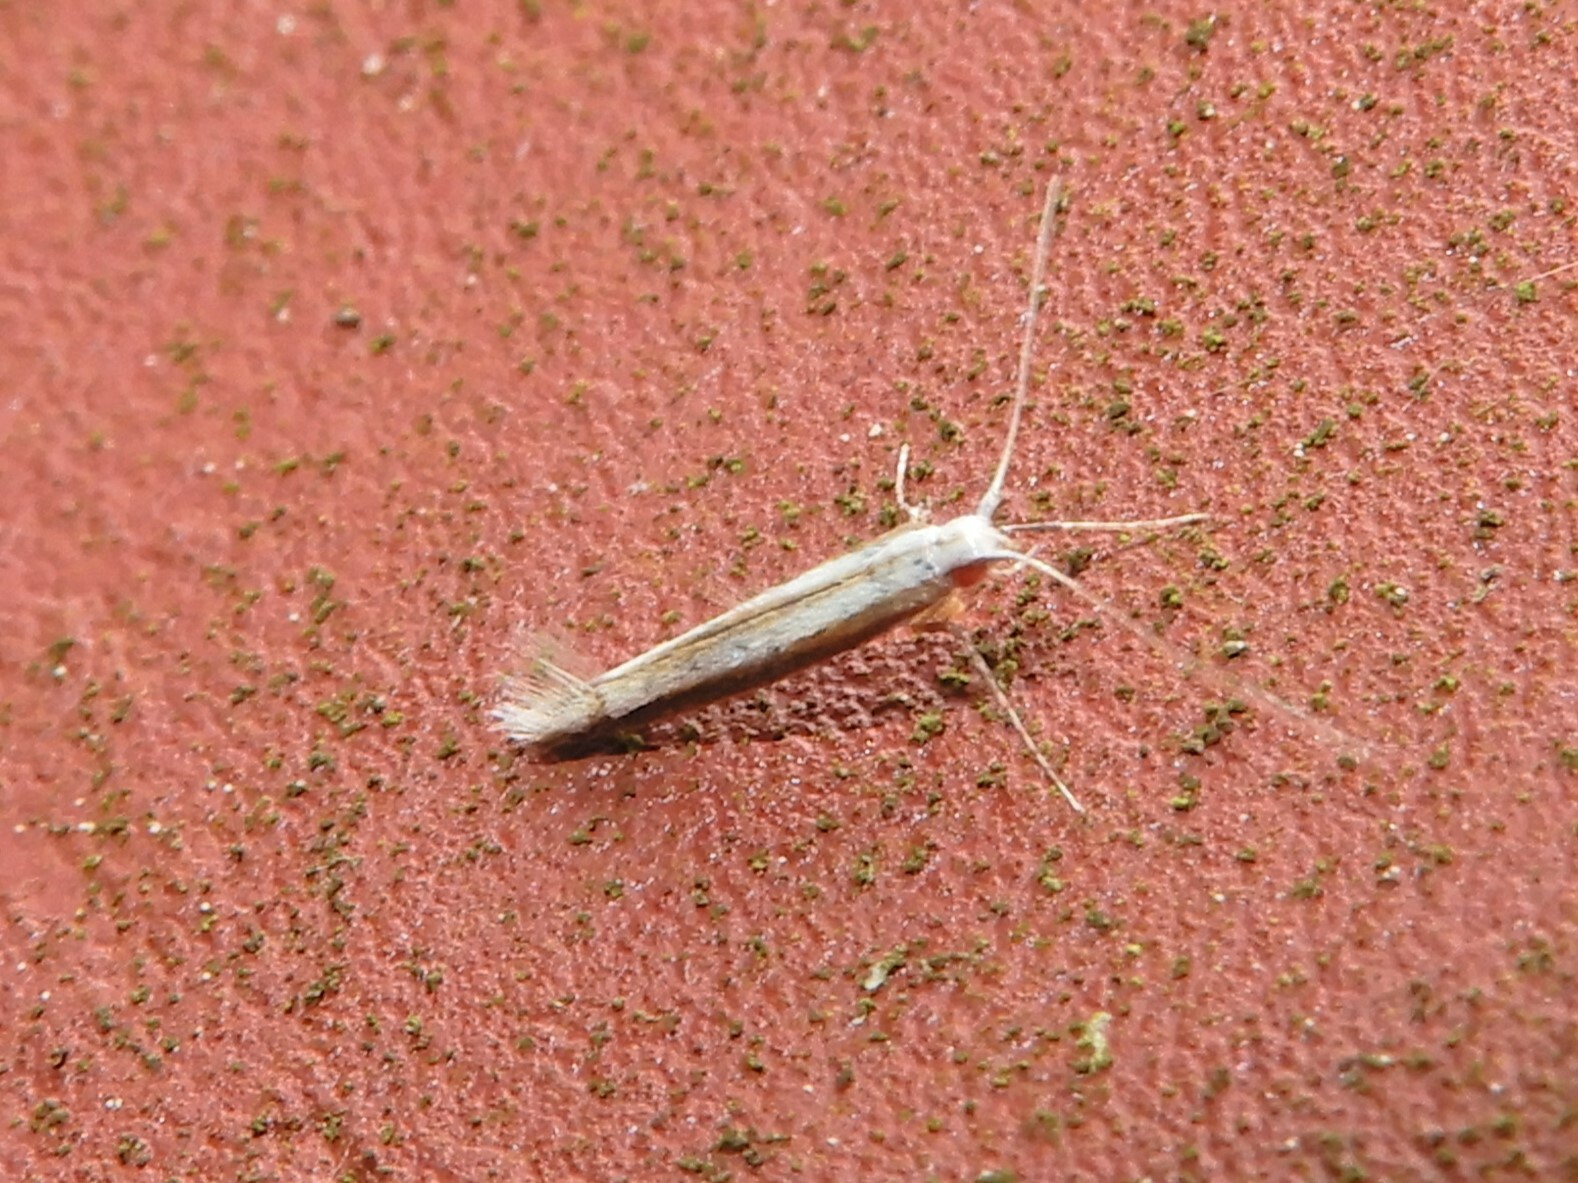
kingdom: Animalia
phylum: Arthropoda
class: Insecta
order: Lepidoptera
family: Gracillariidae
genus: Acrocercops
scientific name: Acrocercops laciniella
